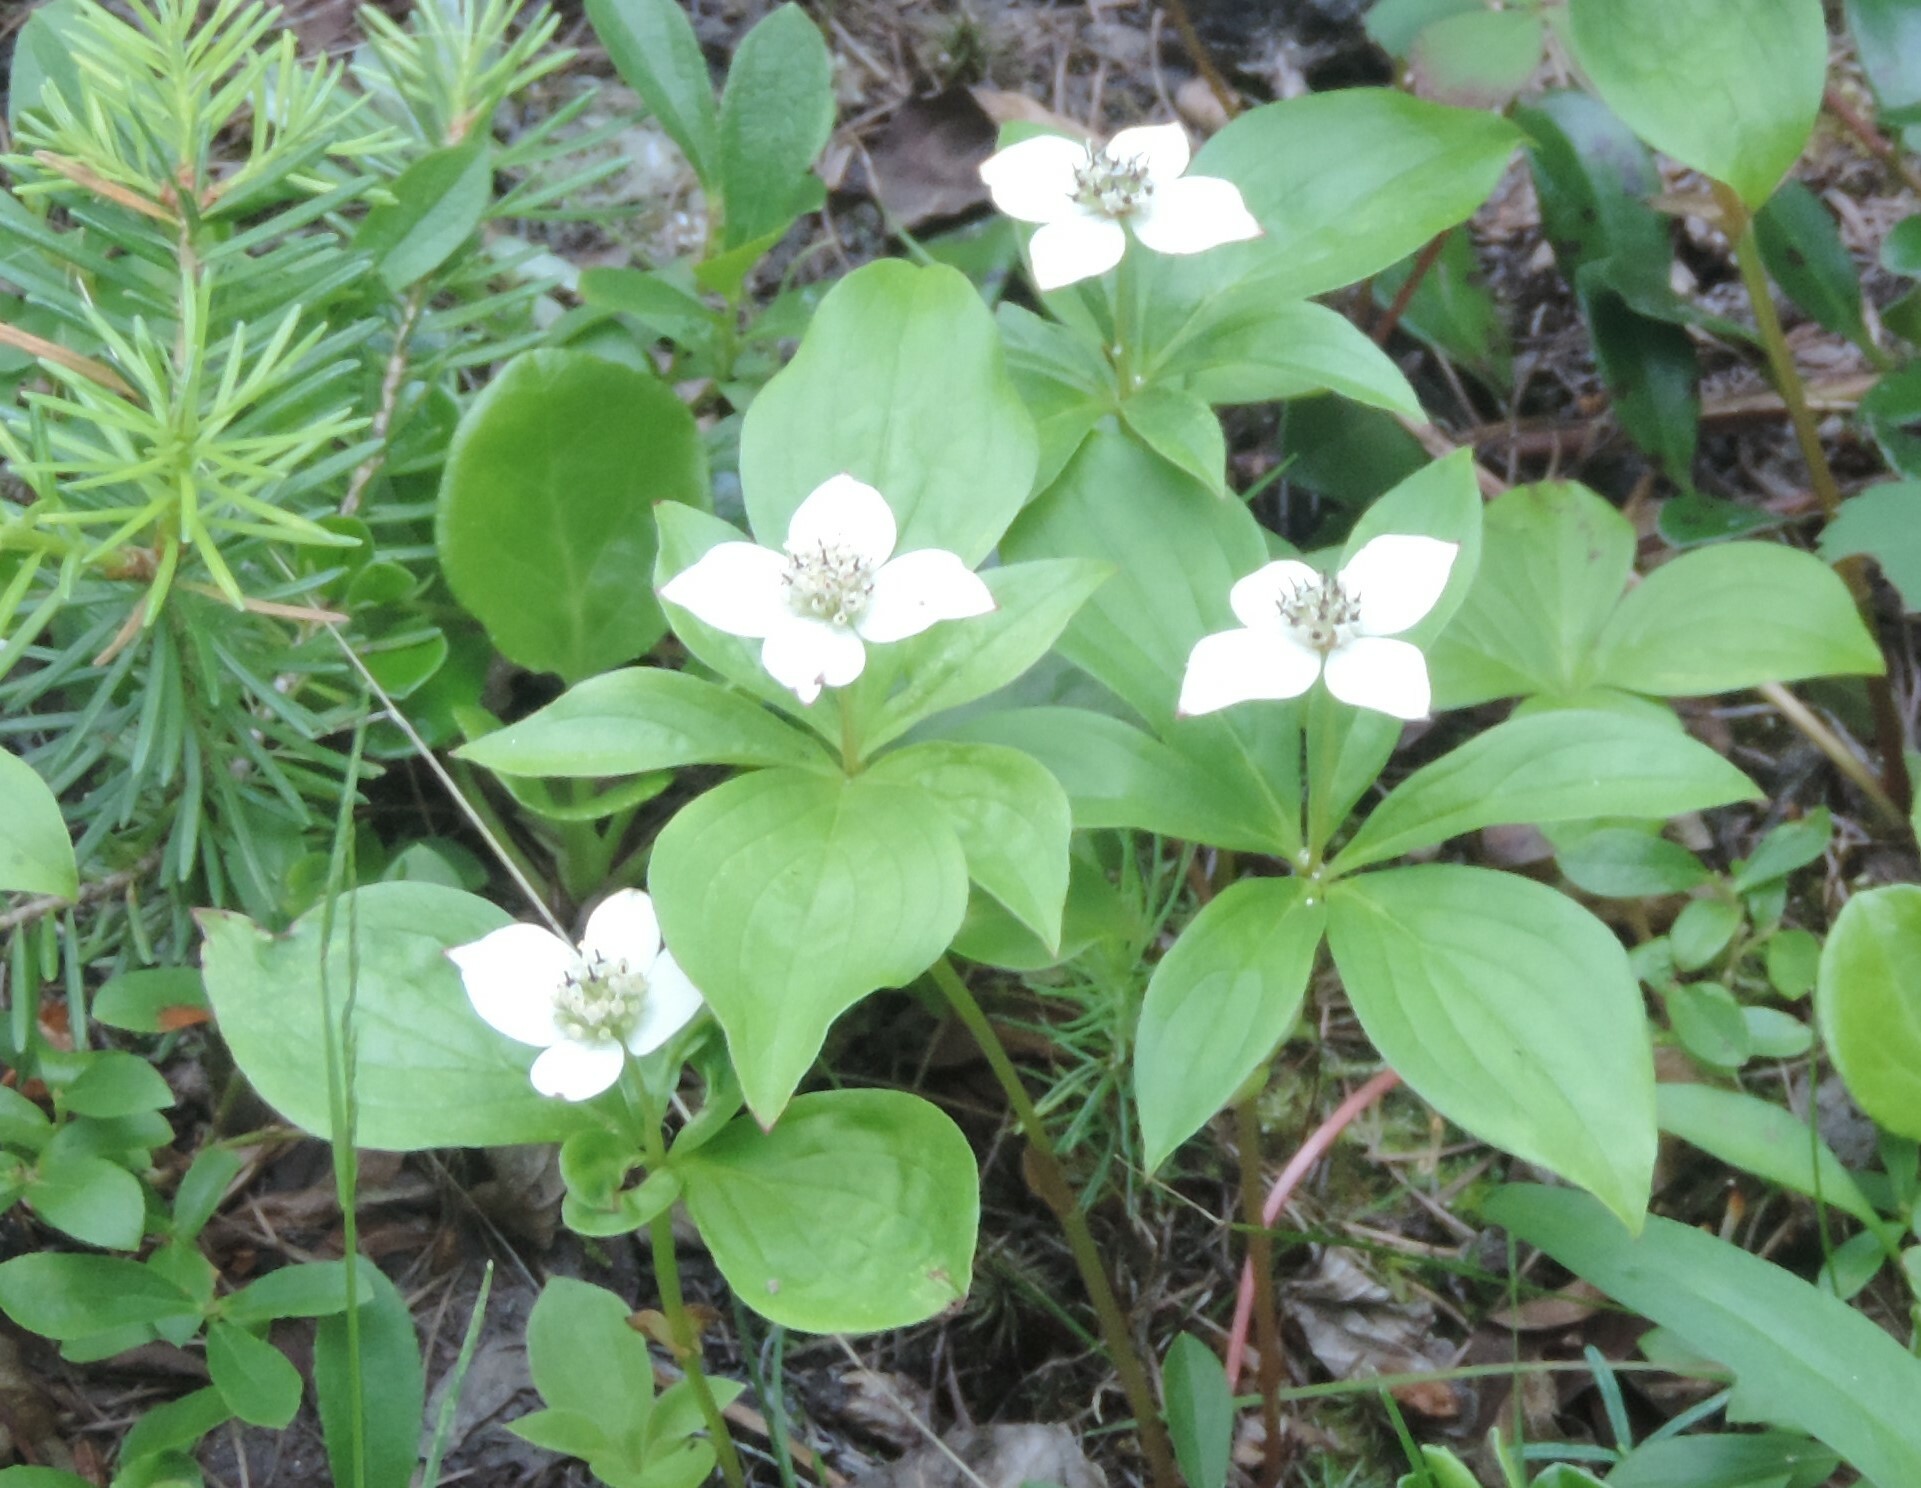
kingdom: Plantae
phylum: Tracheophyta
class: Magnoliopsida
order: Cornales
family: Cornaceae
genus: Cornus
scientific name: Cornus canadensis
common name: Creeping dogwood
